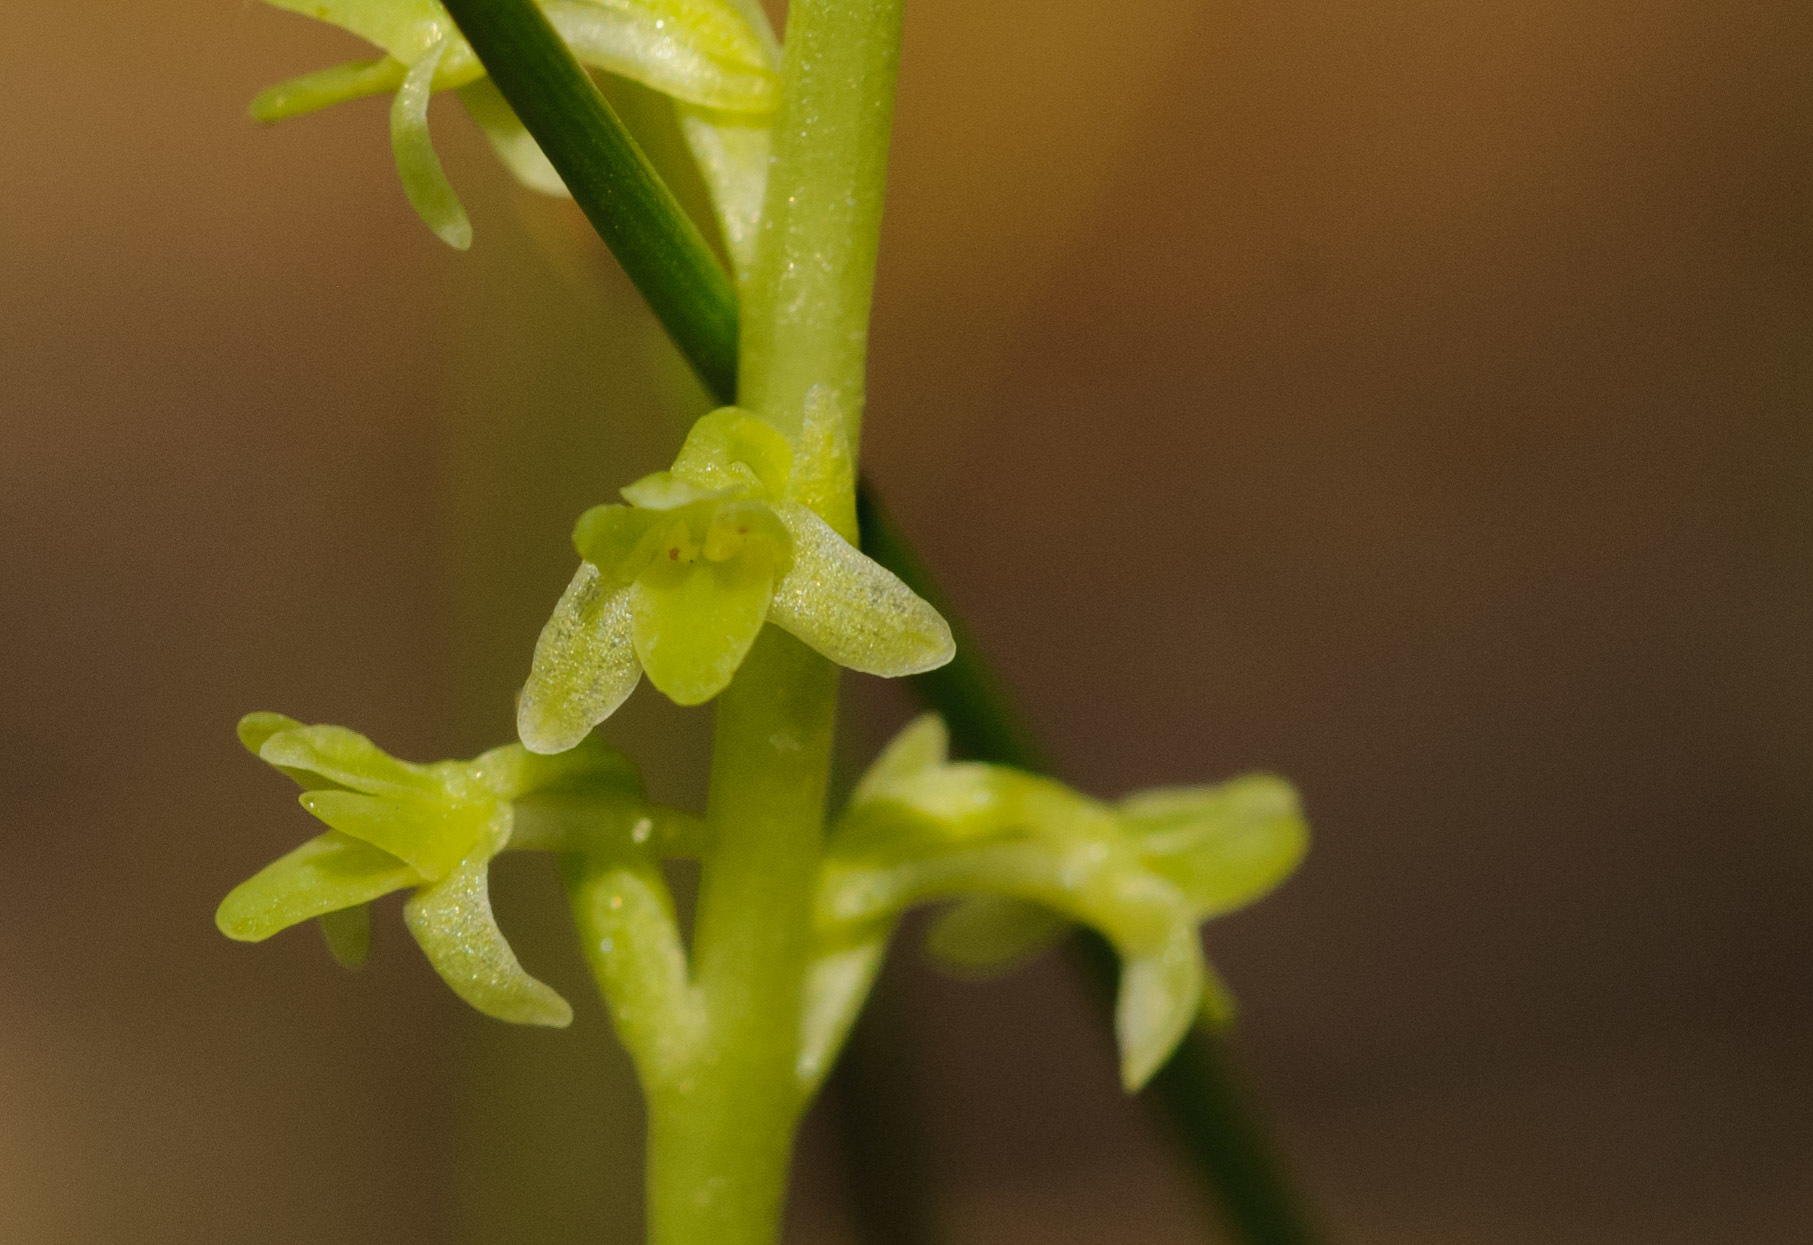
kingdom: Plantae
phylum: Tracheophyta
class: Liliopsida
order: Asparagales
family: Orchidaceae
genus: Platanthera
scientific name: Platanthera unalascensis
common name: Alaska bog orchid
